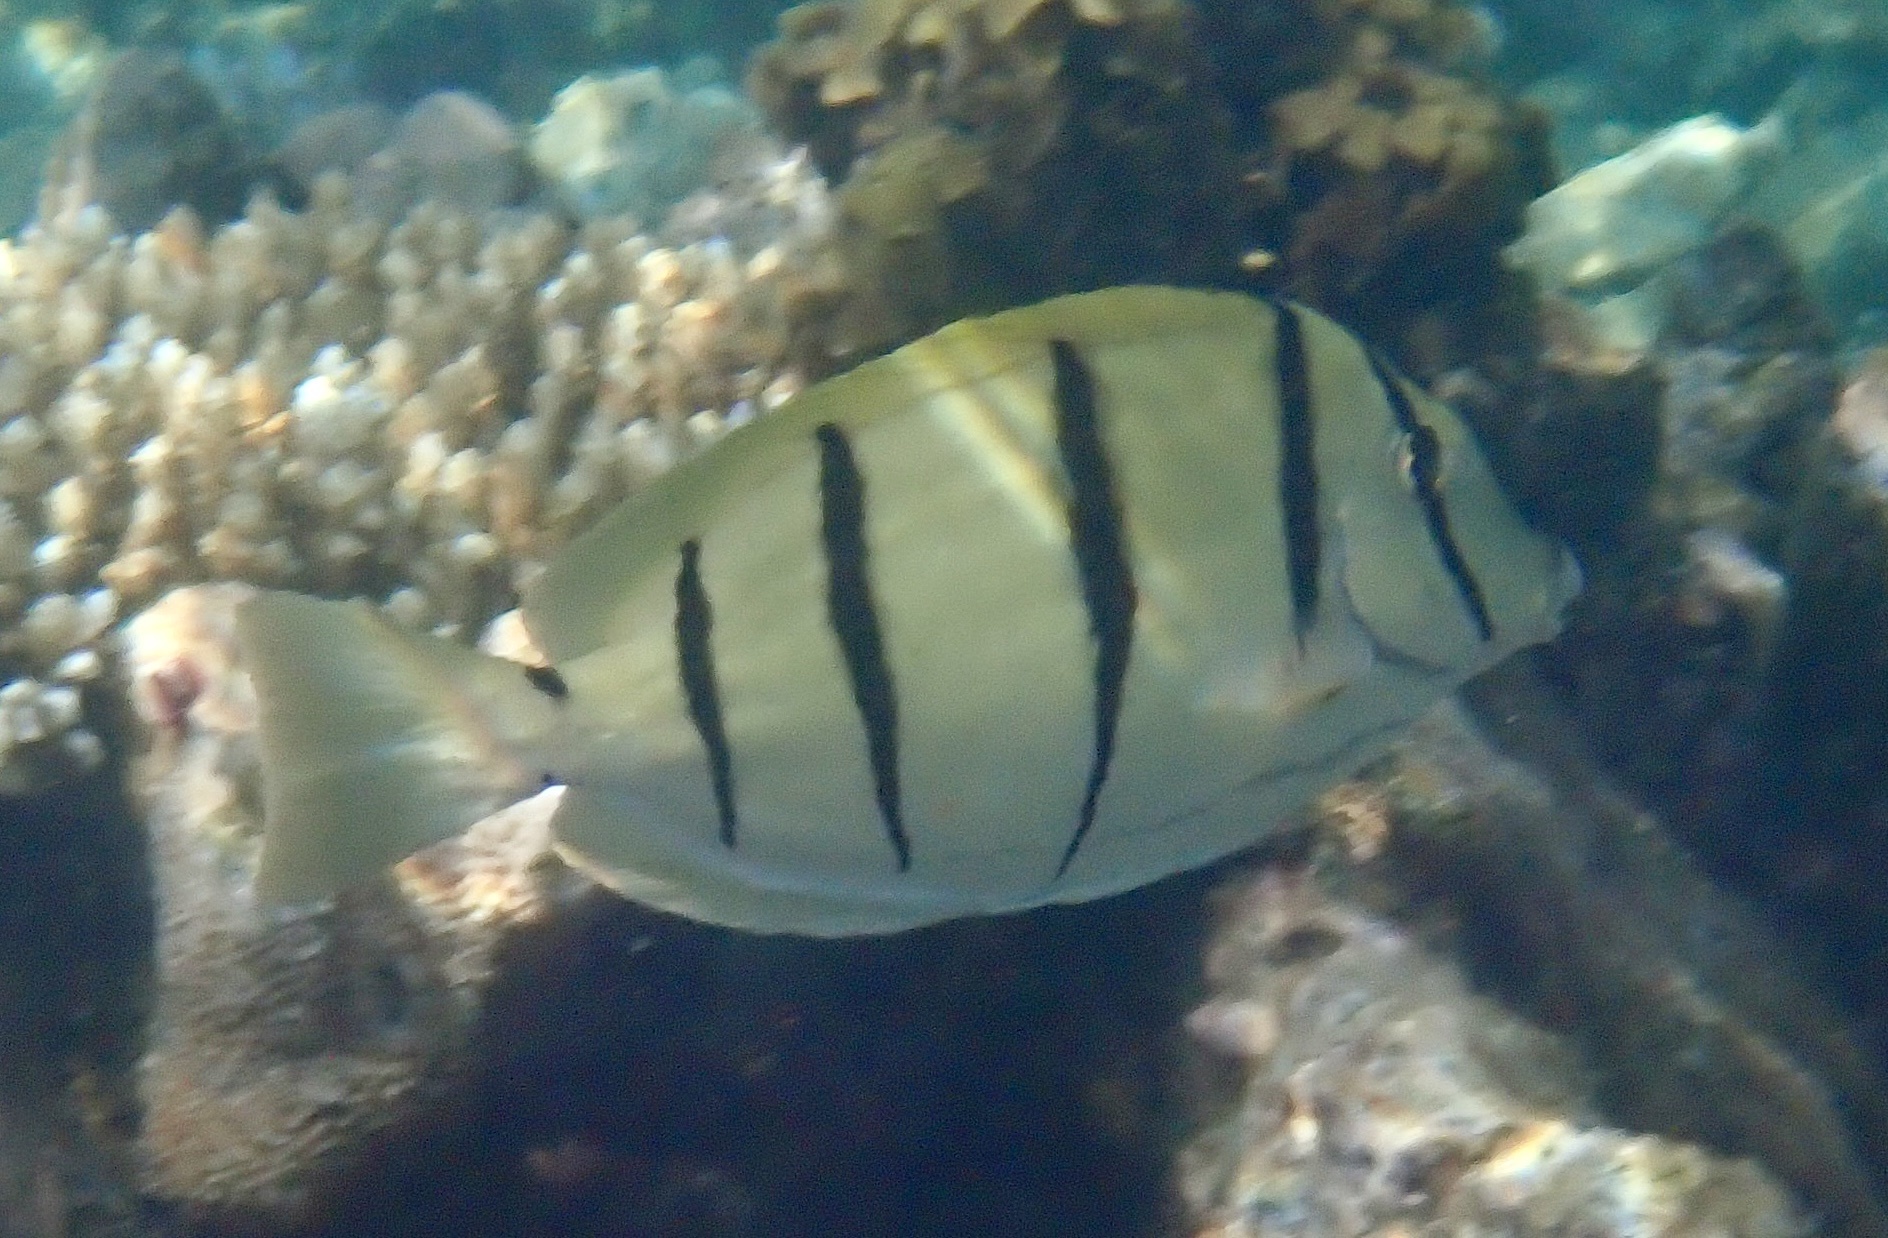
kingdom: Animalia
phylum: Chordata
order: Perciformes
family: Acanthuridae
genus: Acanthurus
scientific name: Acanthurus triostegus
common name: Convict surgeonfish
